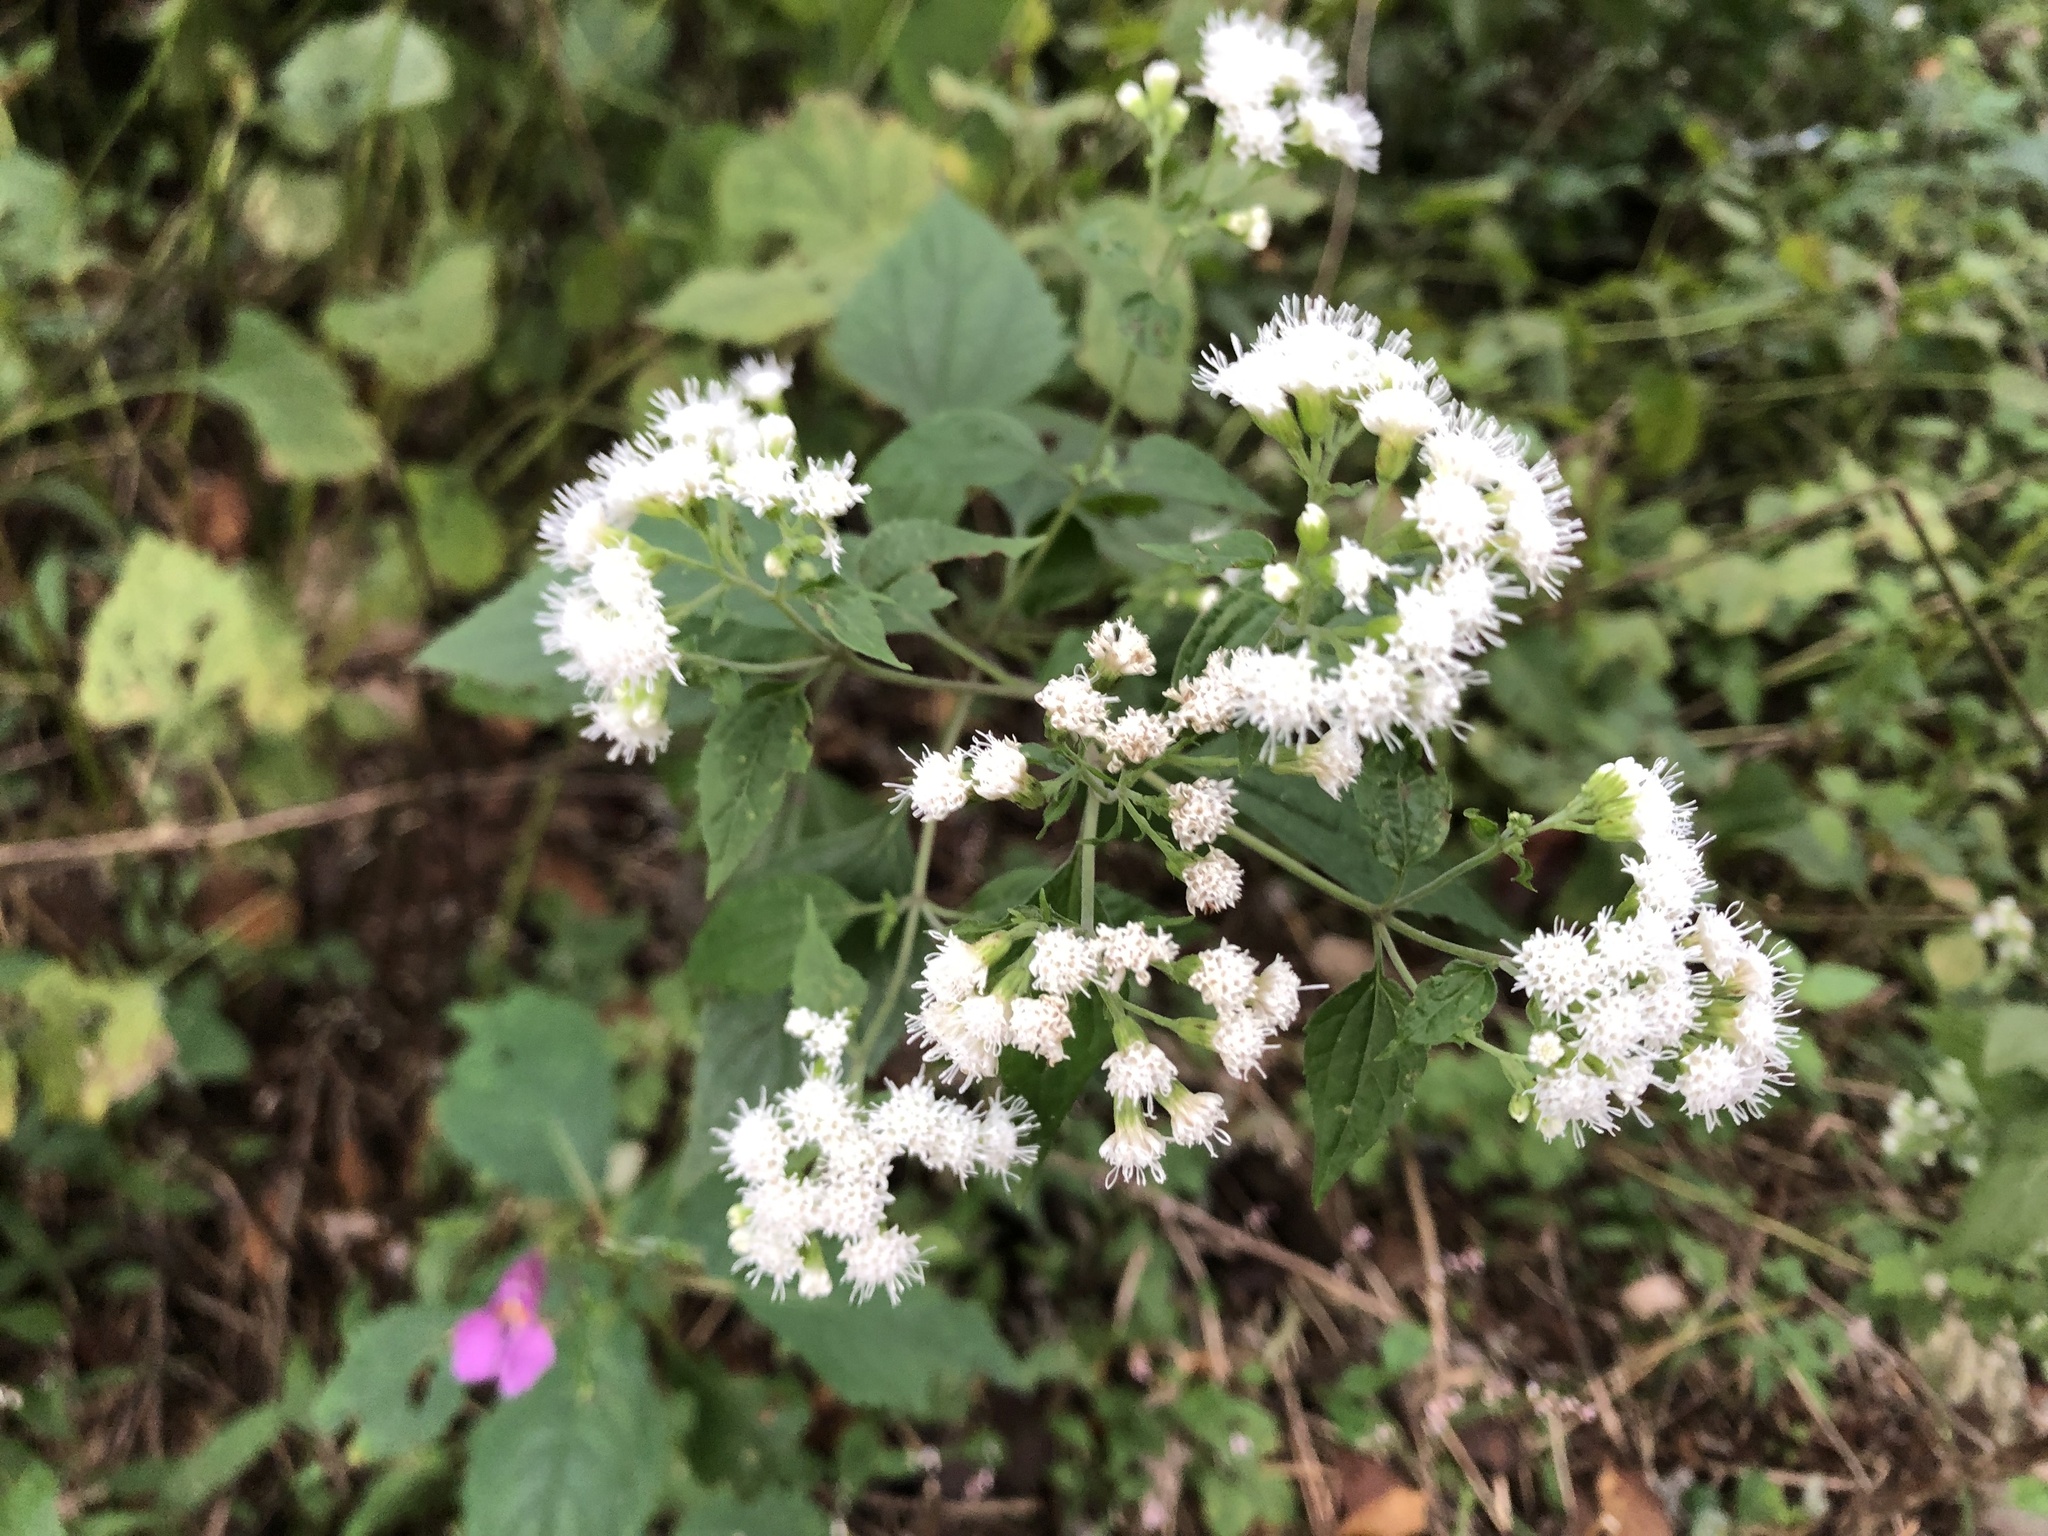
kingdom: Plantae
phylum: Tracheophyta
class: Magnoliopsida
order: Asterales
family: Asteraceae
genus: Ageratina
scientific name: Ageratina altissima
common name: White snakeroot
